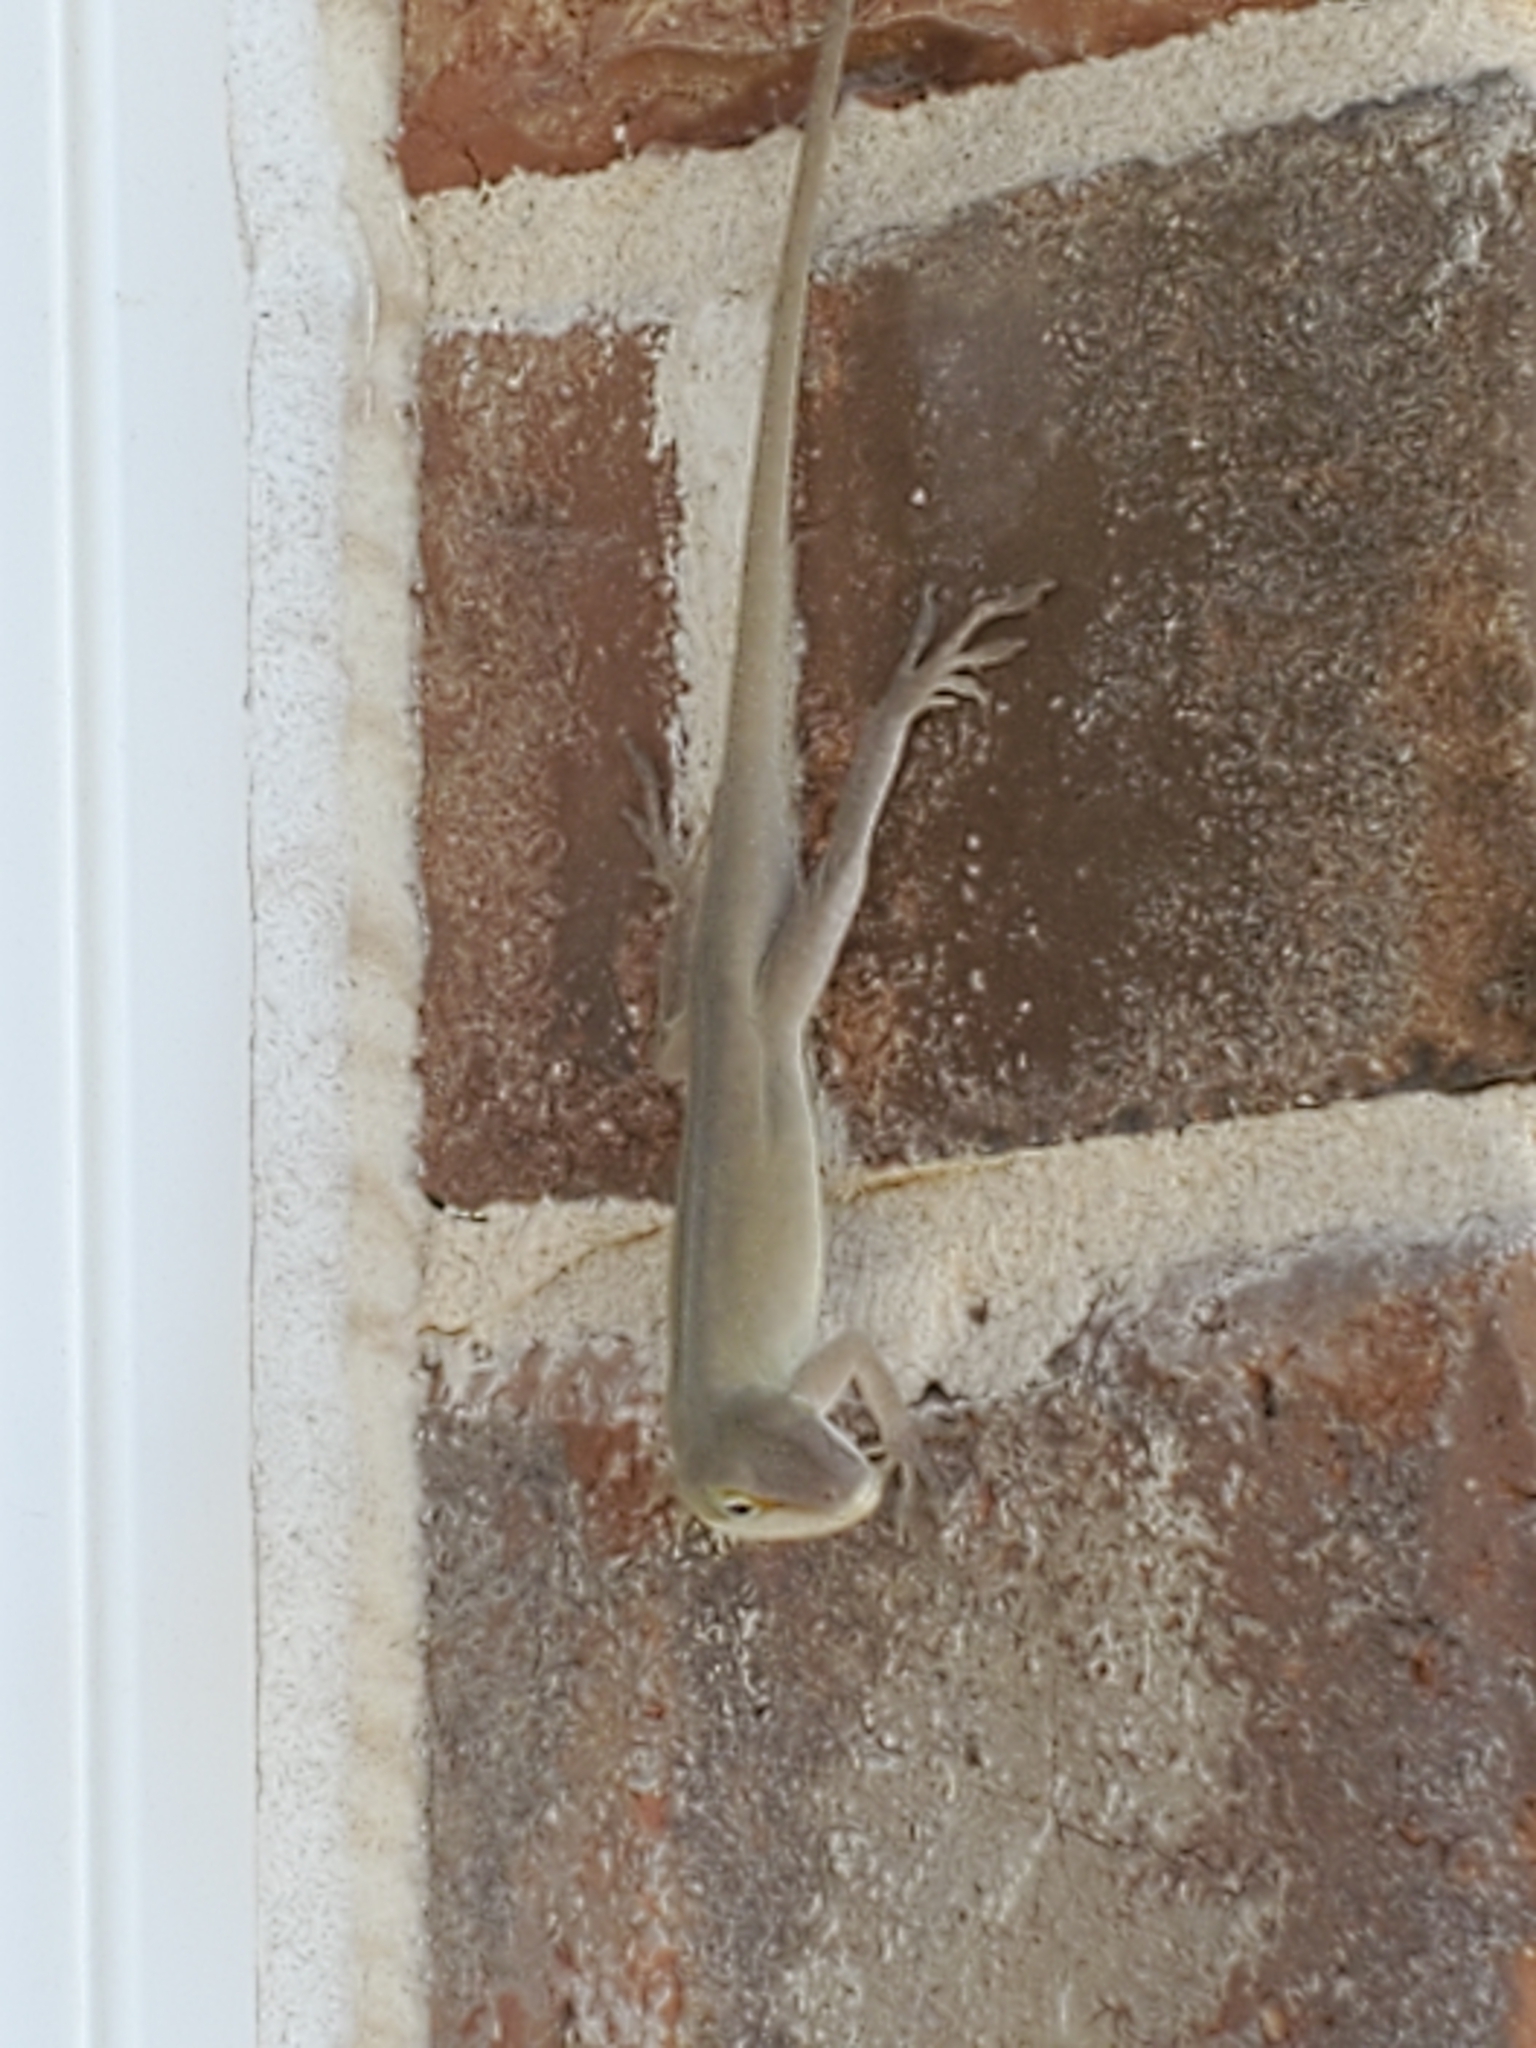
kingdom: Animalia
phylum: Chordata
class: Squamata
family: Dactyloidae
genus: Anolis
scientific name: Anolis carolinensis
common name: Green anole
